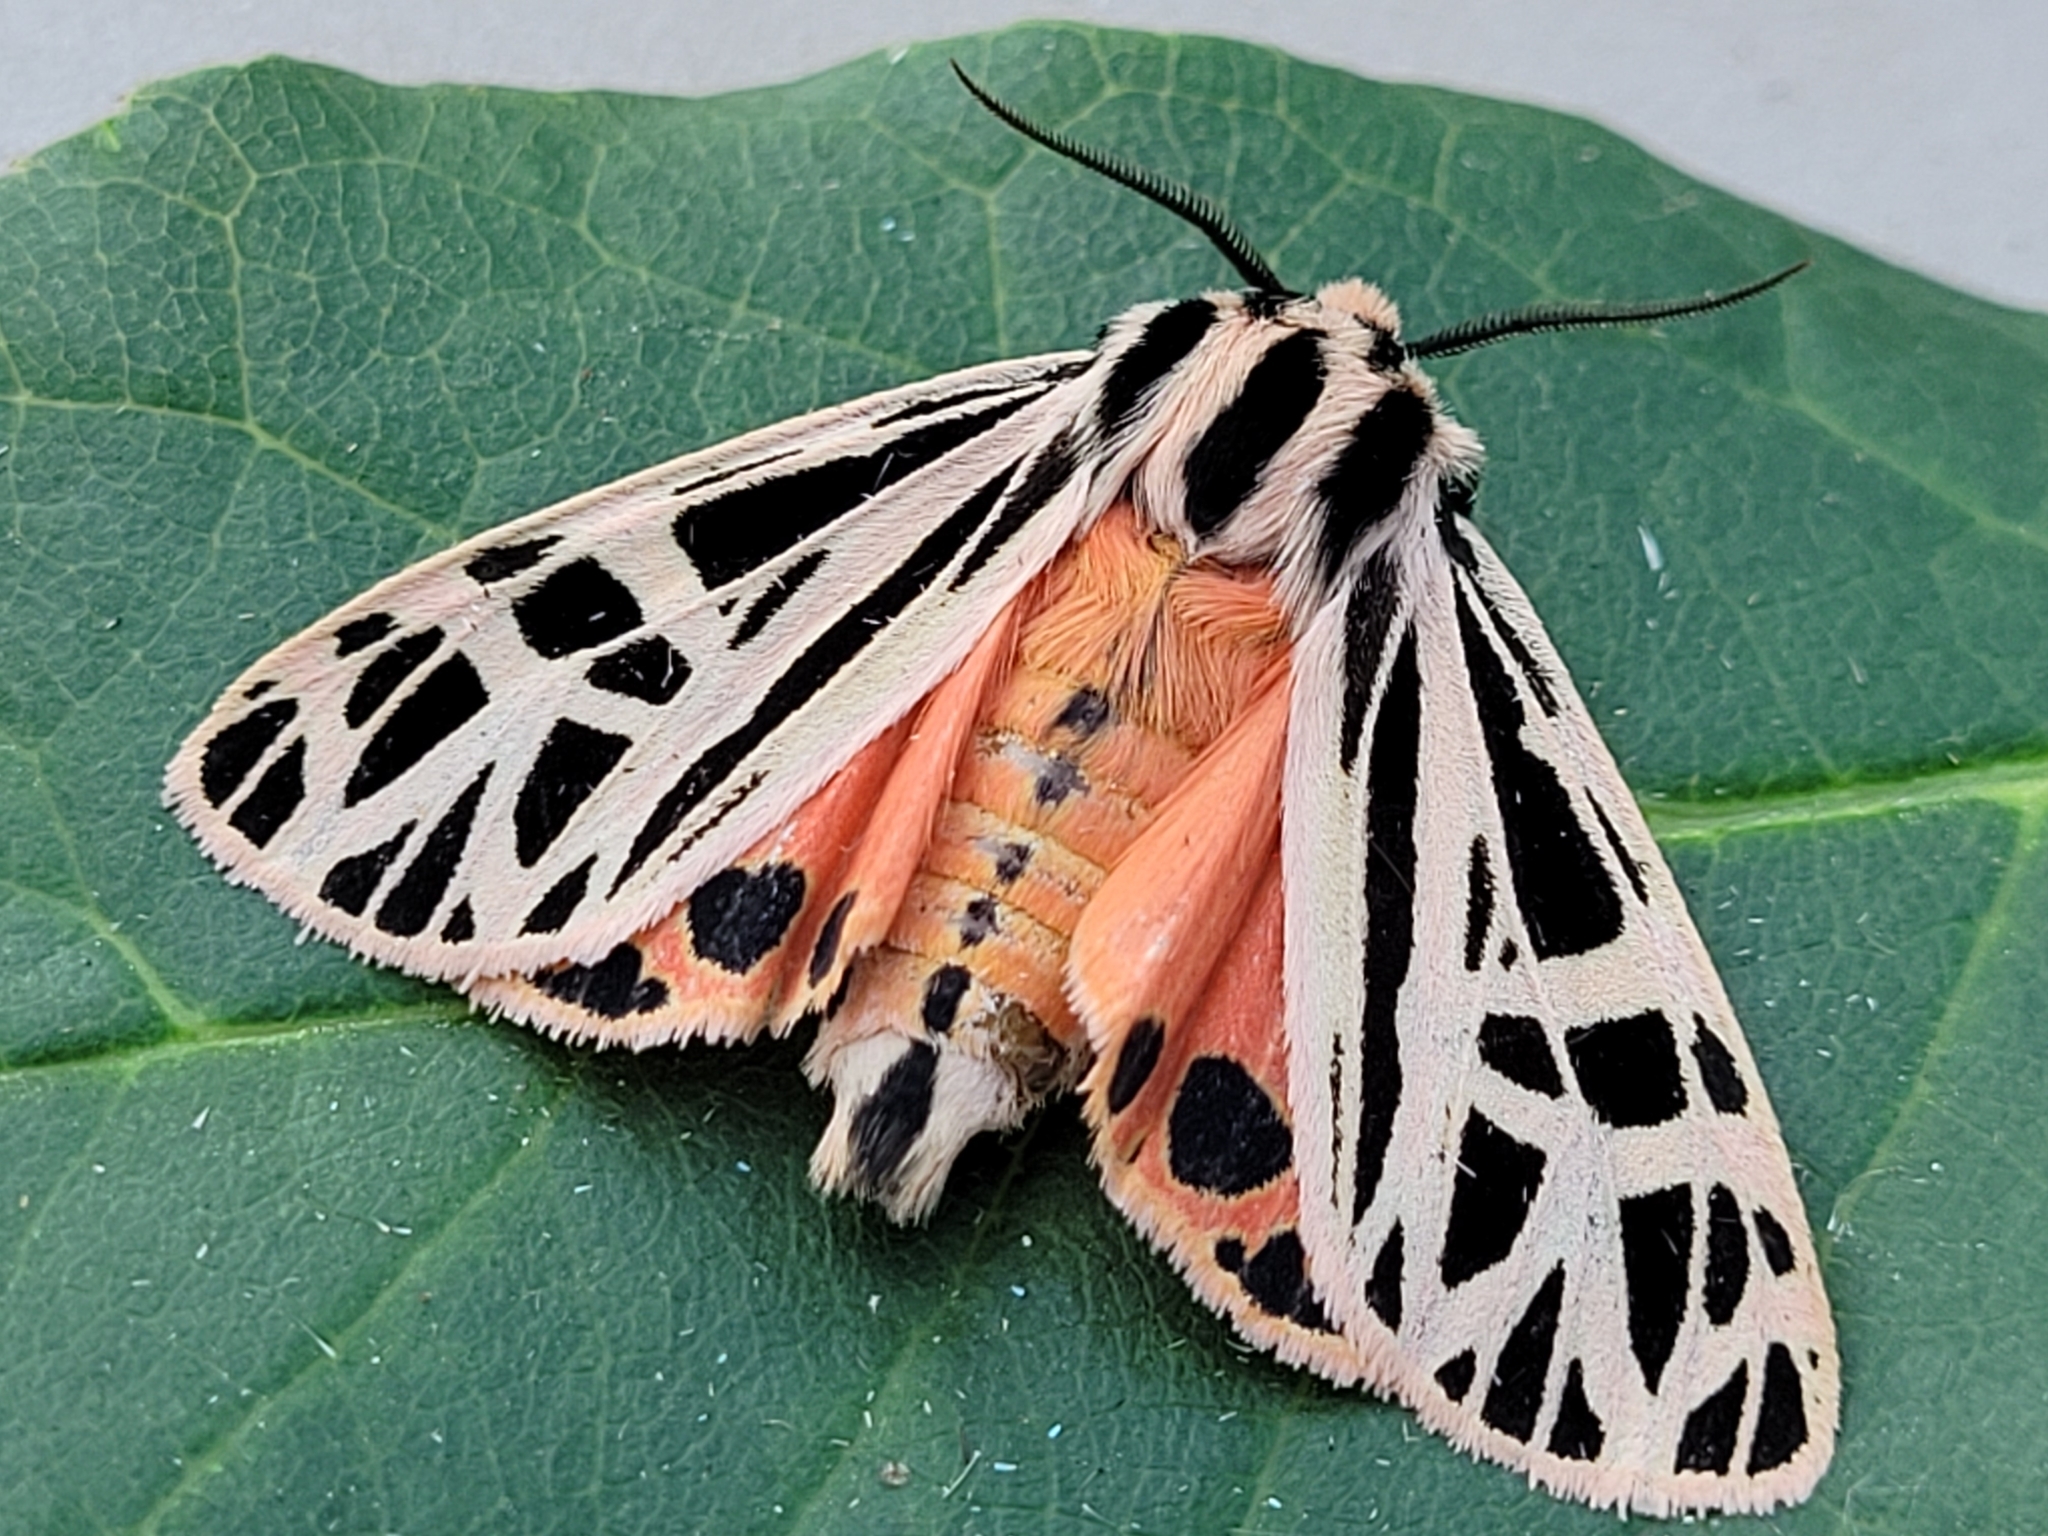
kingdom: Animalia
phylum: Arthropoda
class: Insecta
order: Lepidoptera
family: Erebidae
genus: Grammia
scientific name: Grammia parthenice
